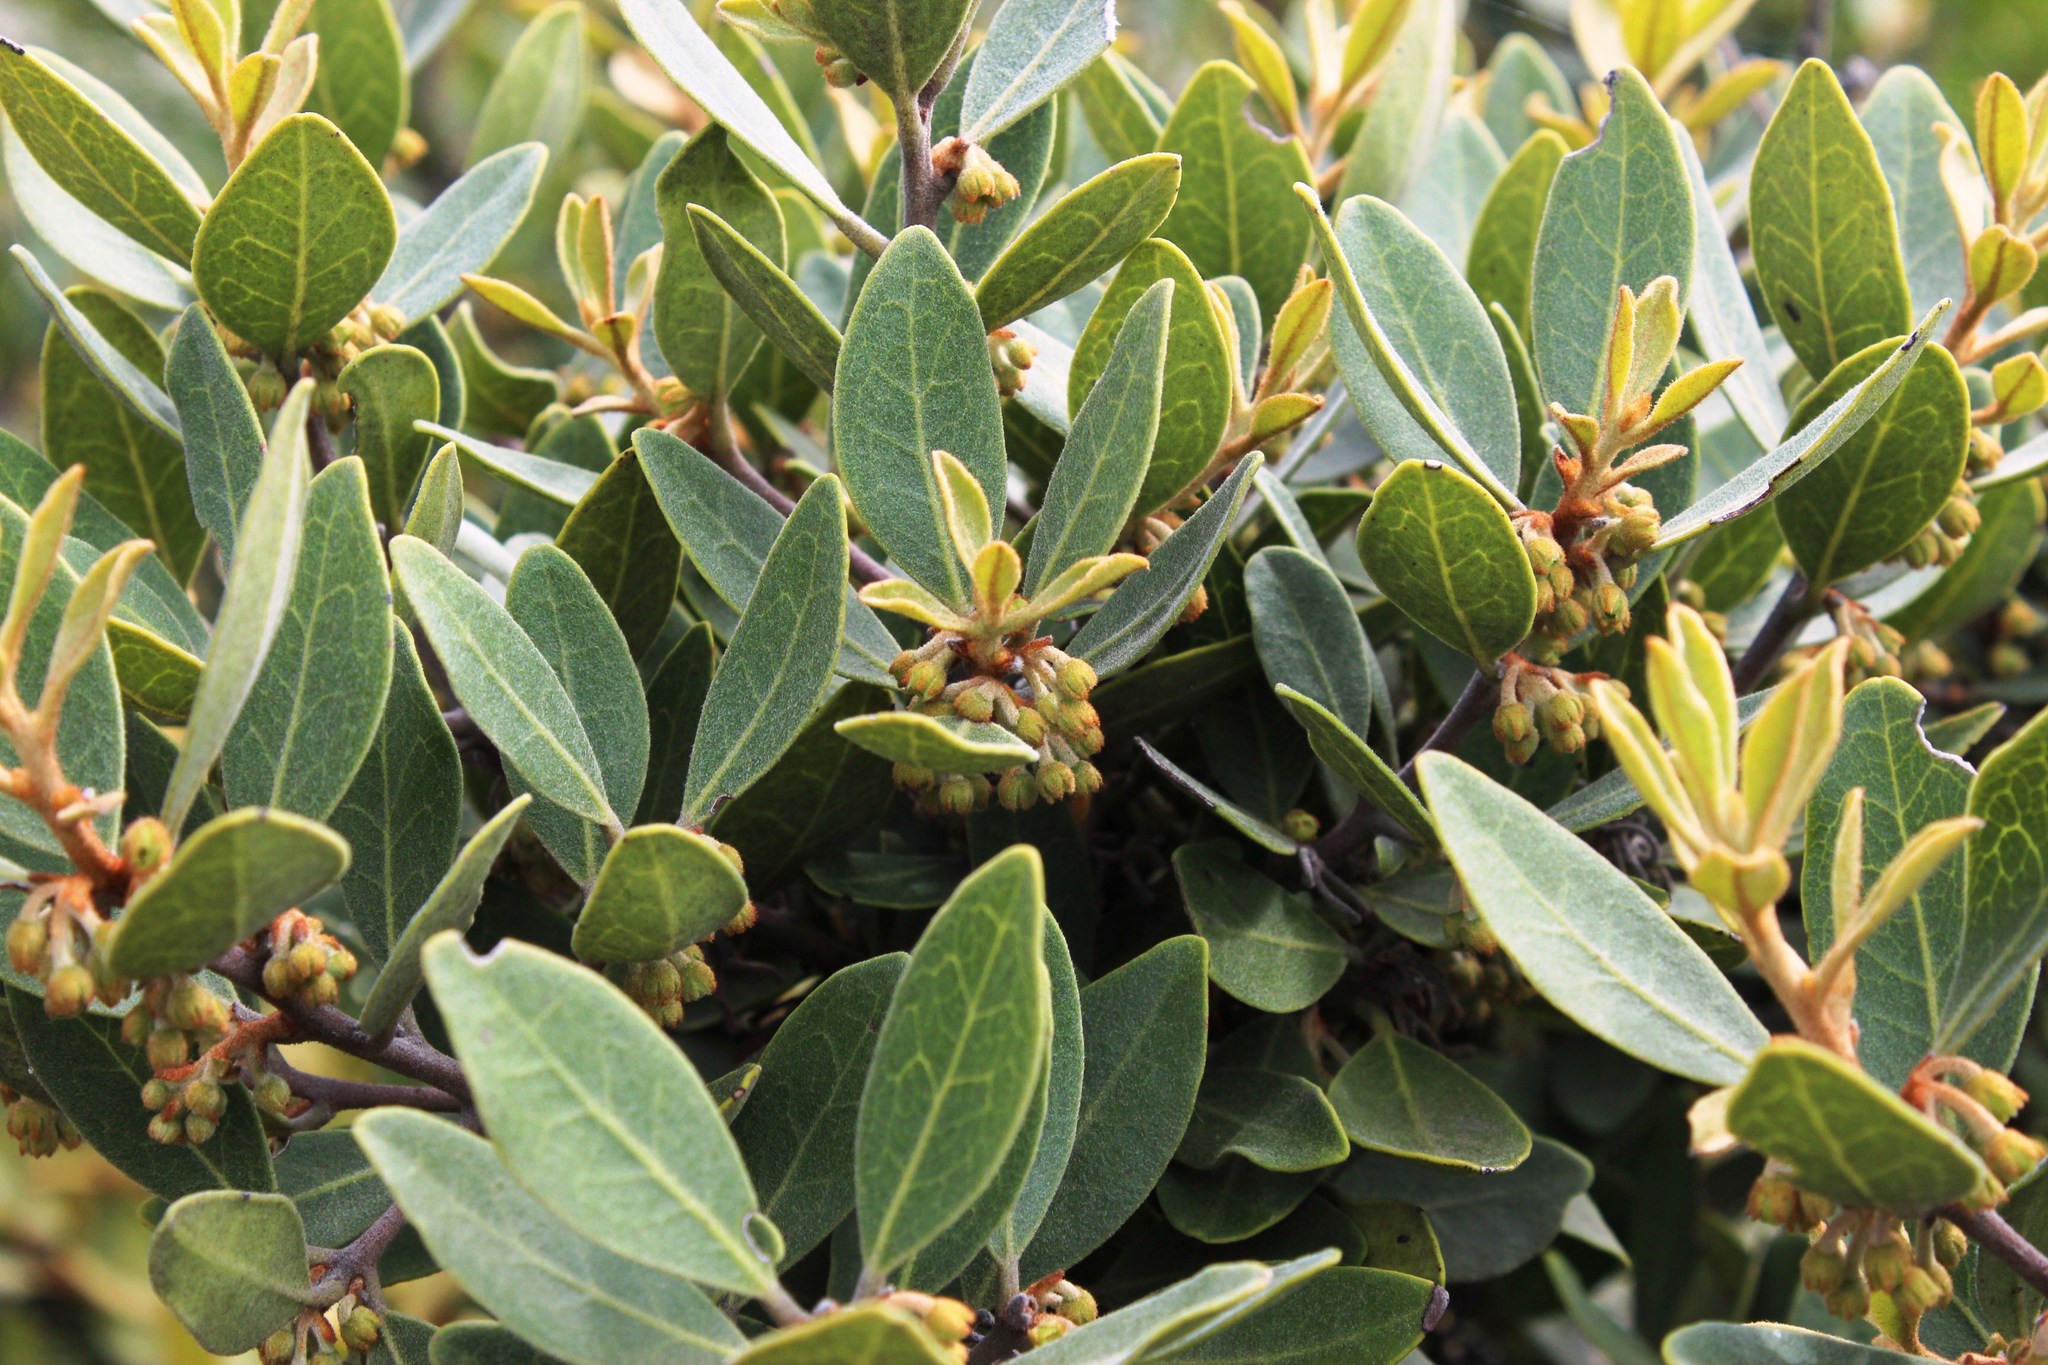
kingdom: Plantae
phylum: Tracheophyta
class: Magnoliopsida
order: Ericales
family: Ebenaceae
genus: Euclea
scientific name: Euclea polyandra
